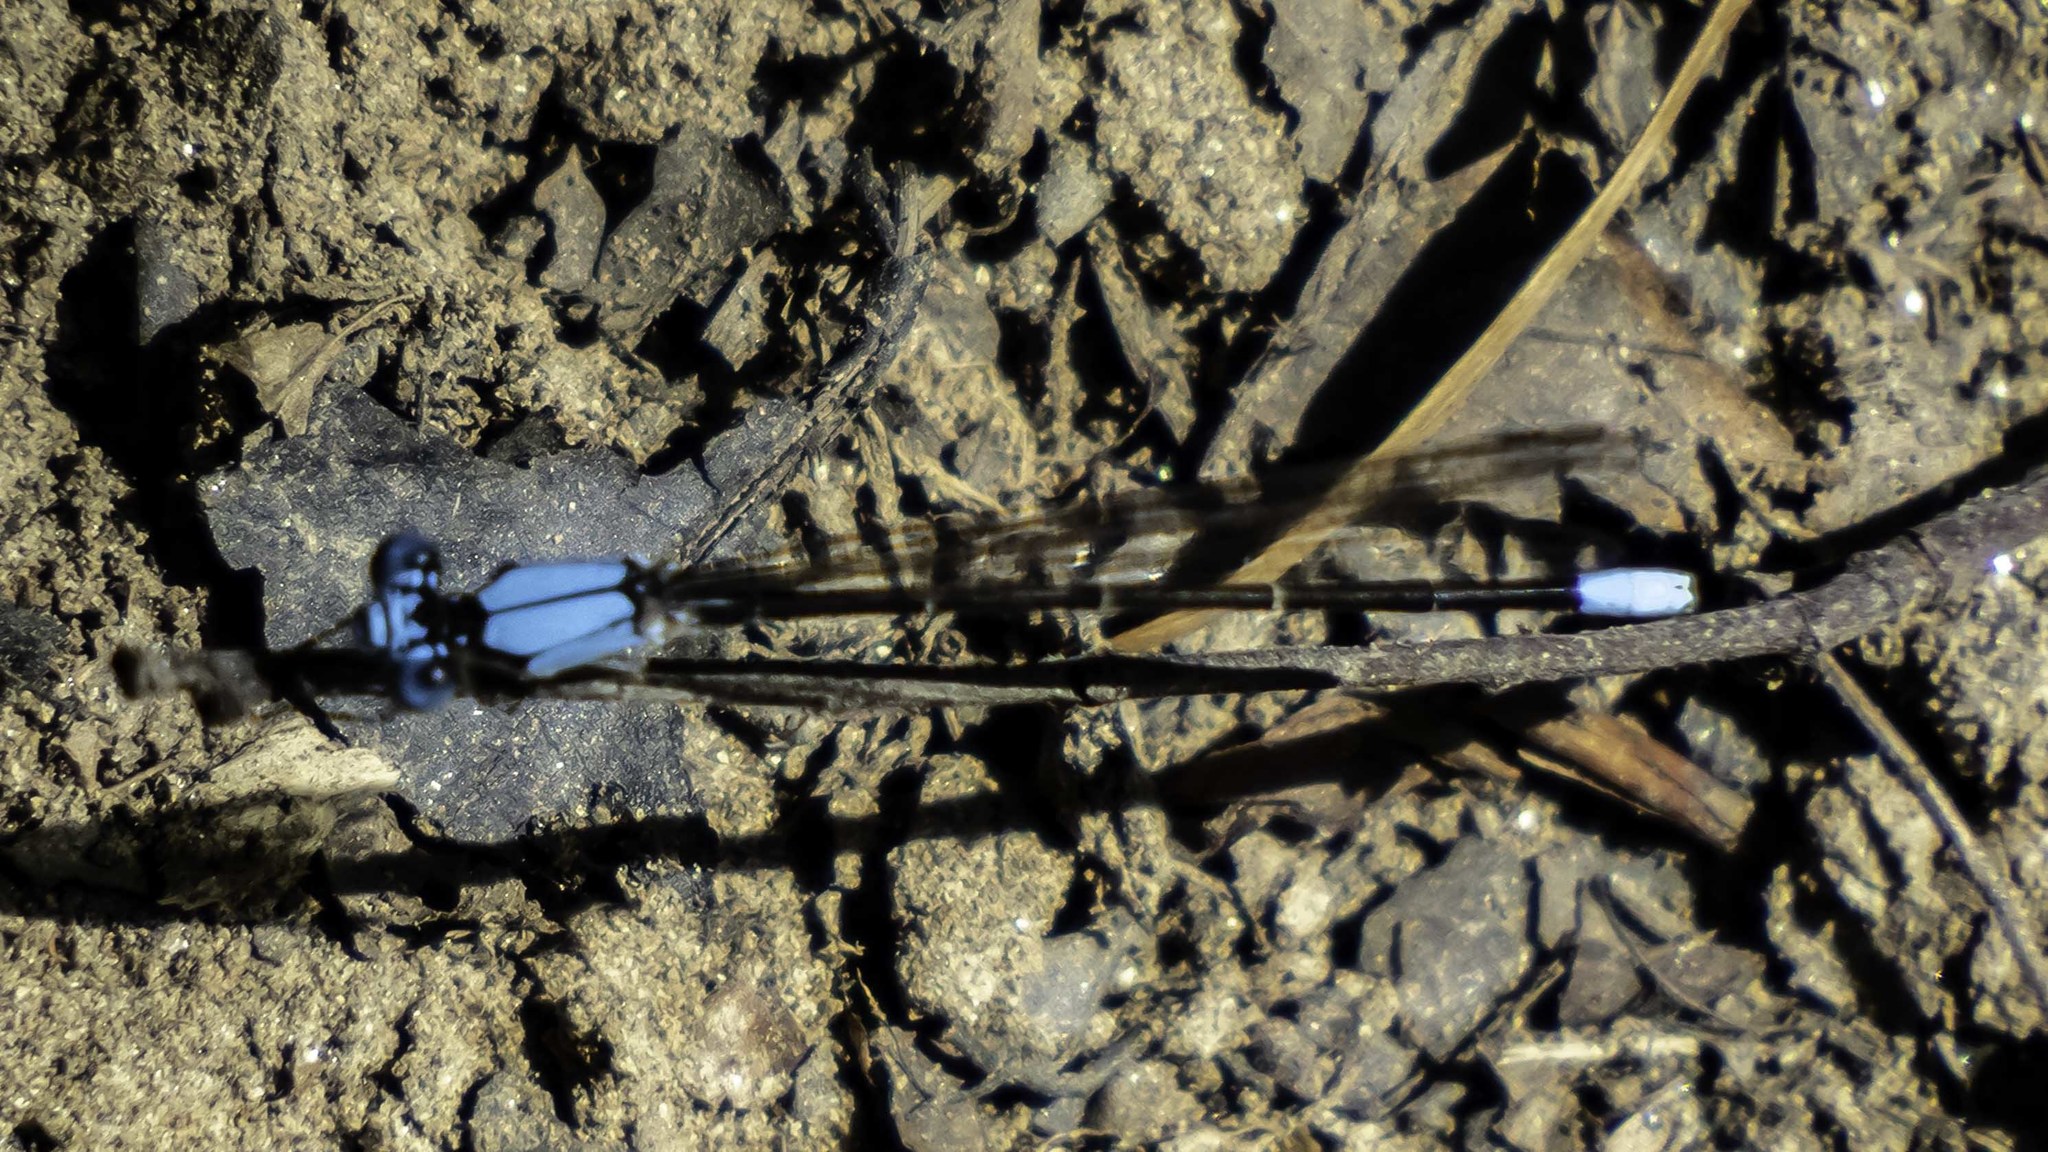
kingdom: Animalia
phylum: Arthropoda
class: Insecta
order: Odonata
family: Coenagrionidae
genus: Argia
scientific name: Argia apicalis
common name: Blue-fronted dancer
